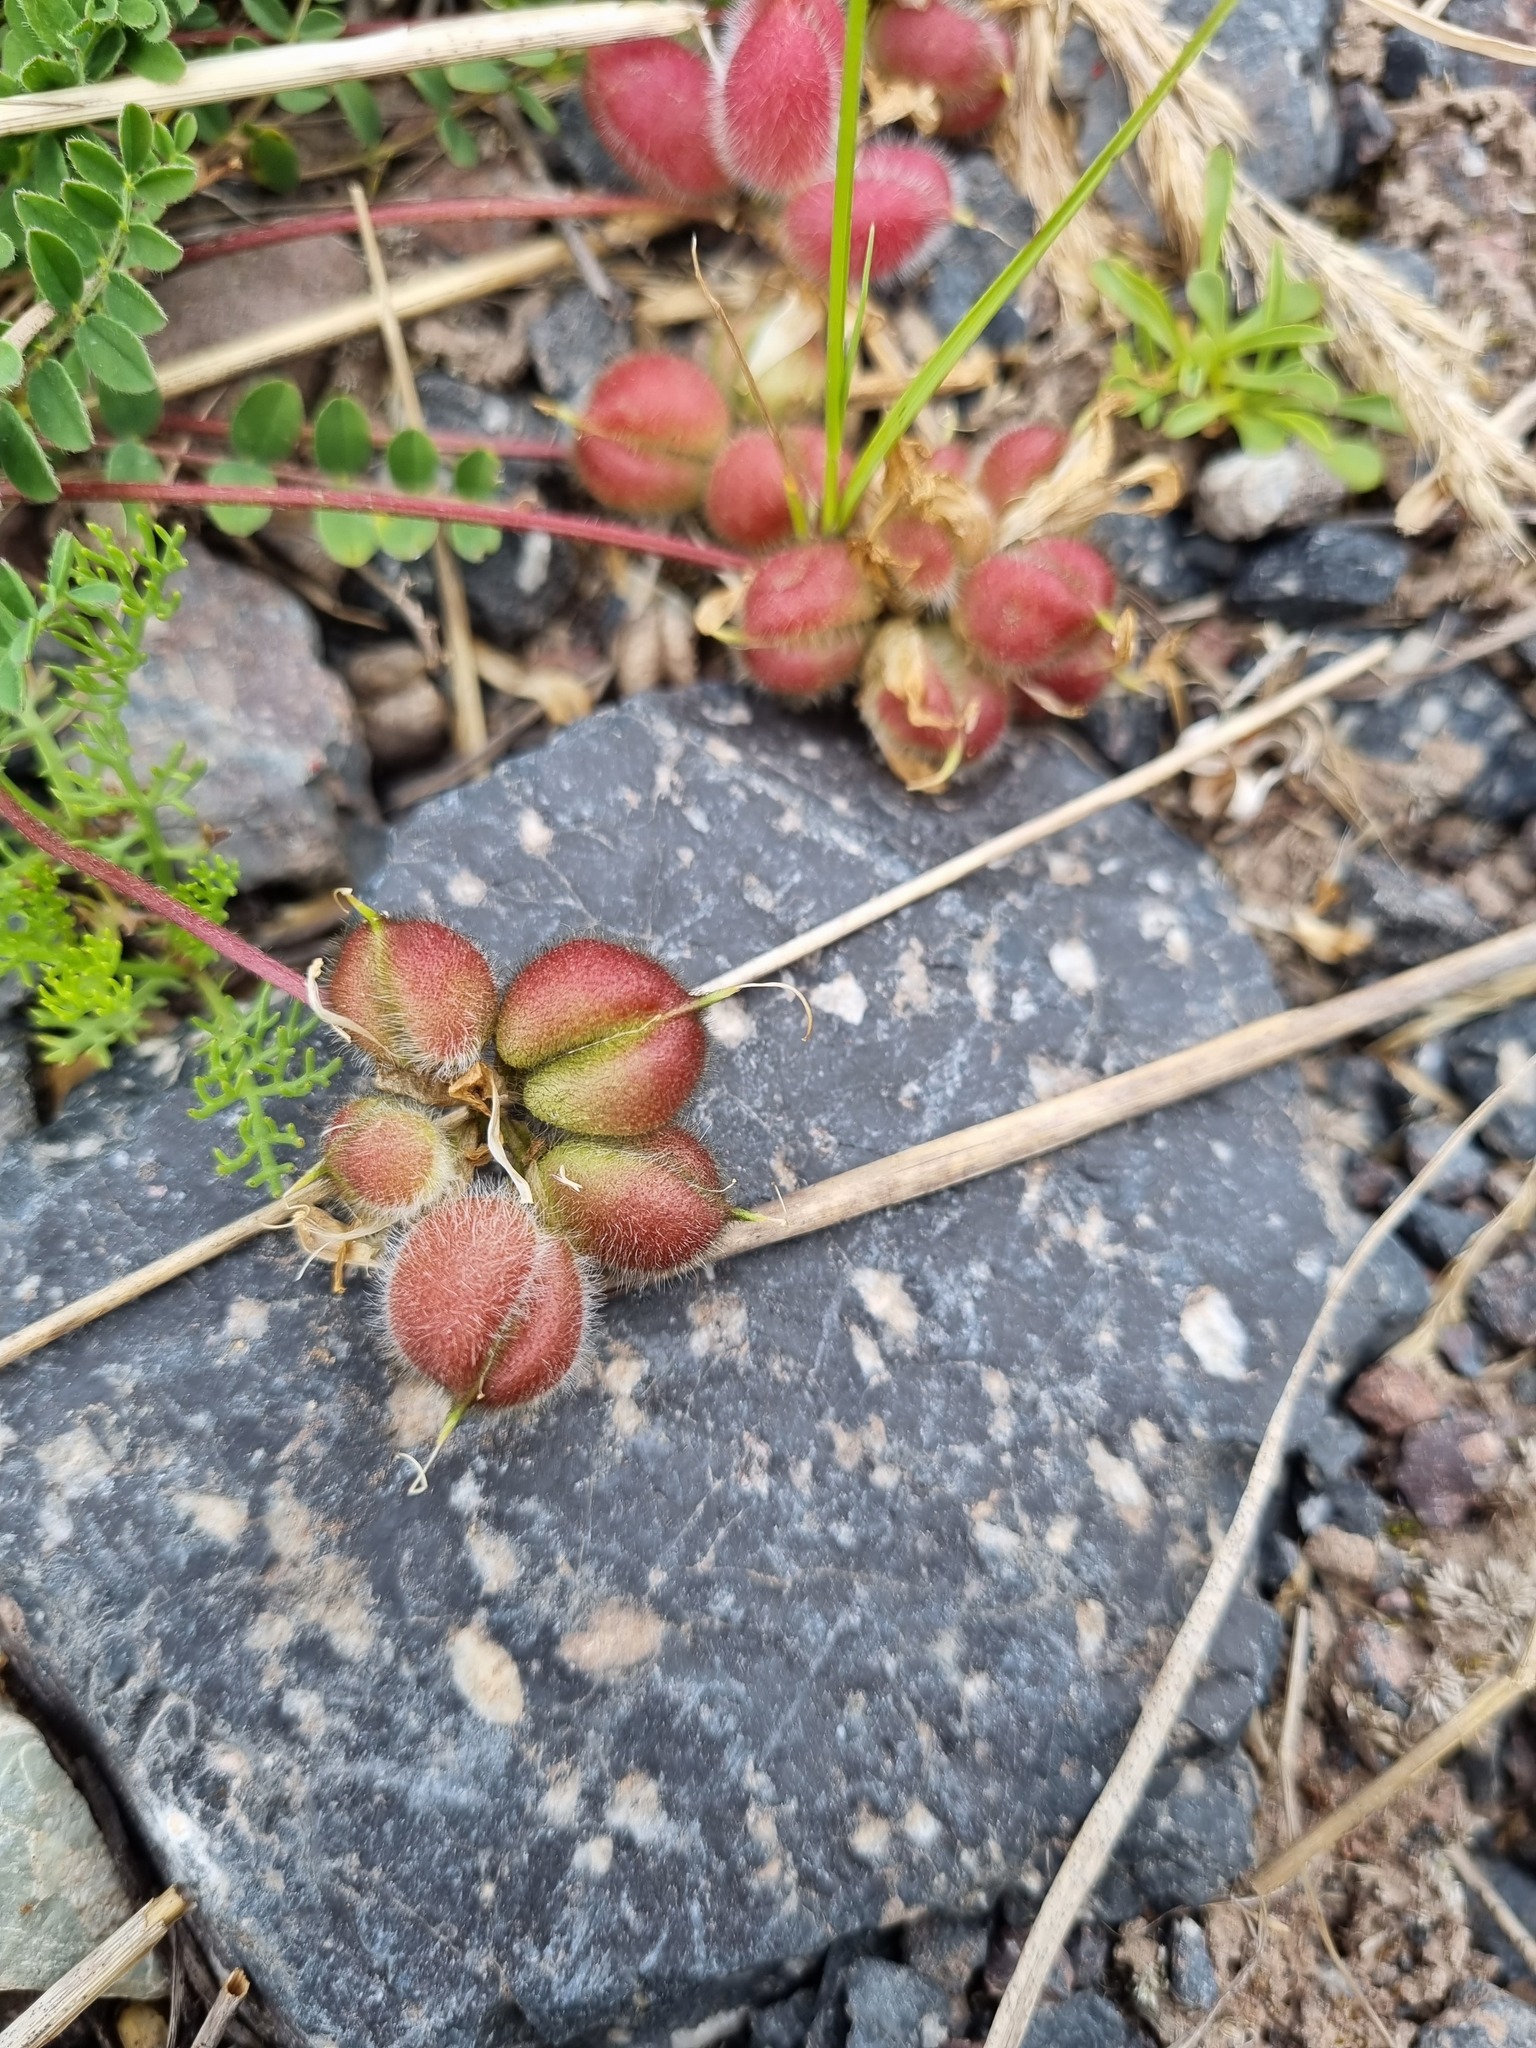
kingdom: Plantae
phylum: Tracheophyta
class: Magnoliopsida
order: Fabales
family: Fabaceae
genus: Astragalus
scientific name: Astragalus oreades
